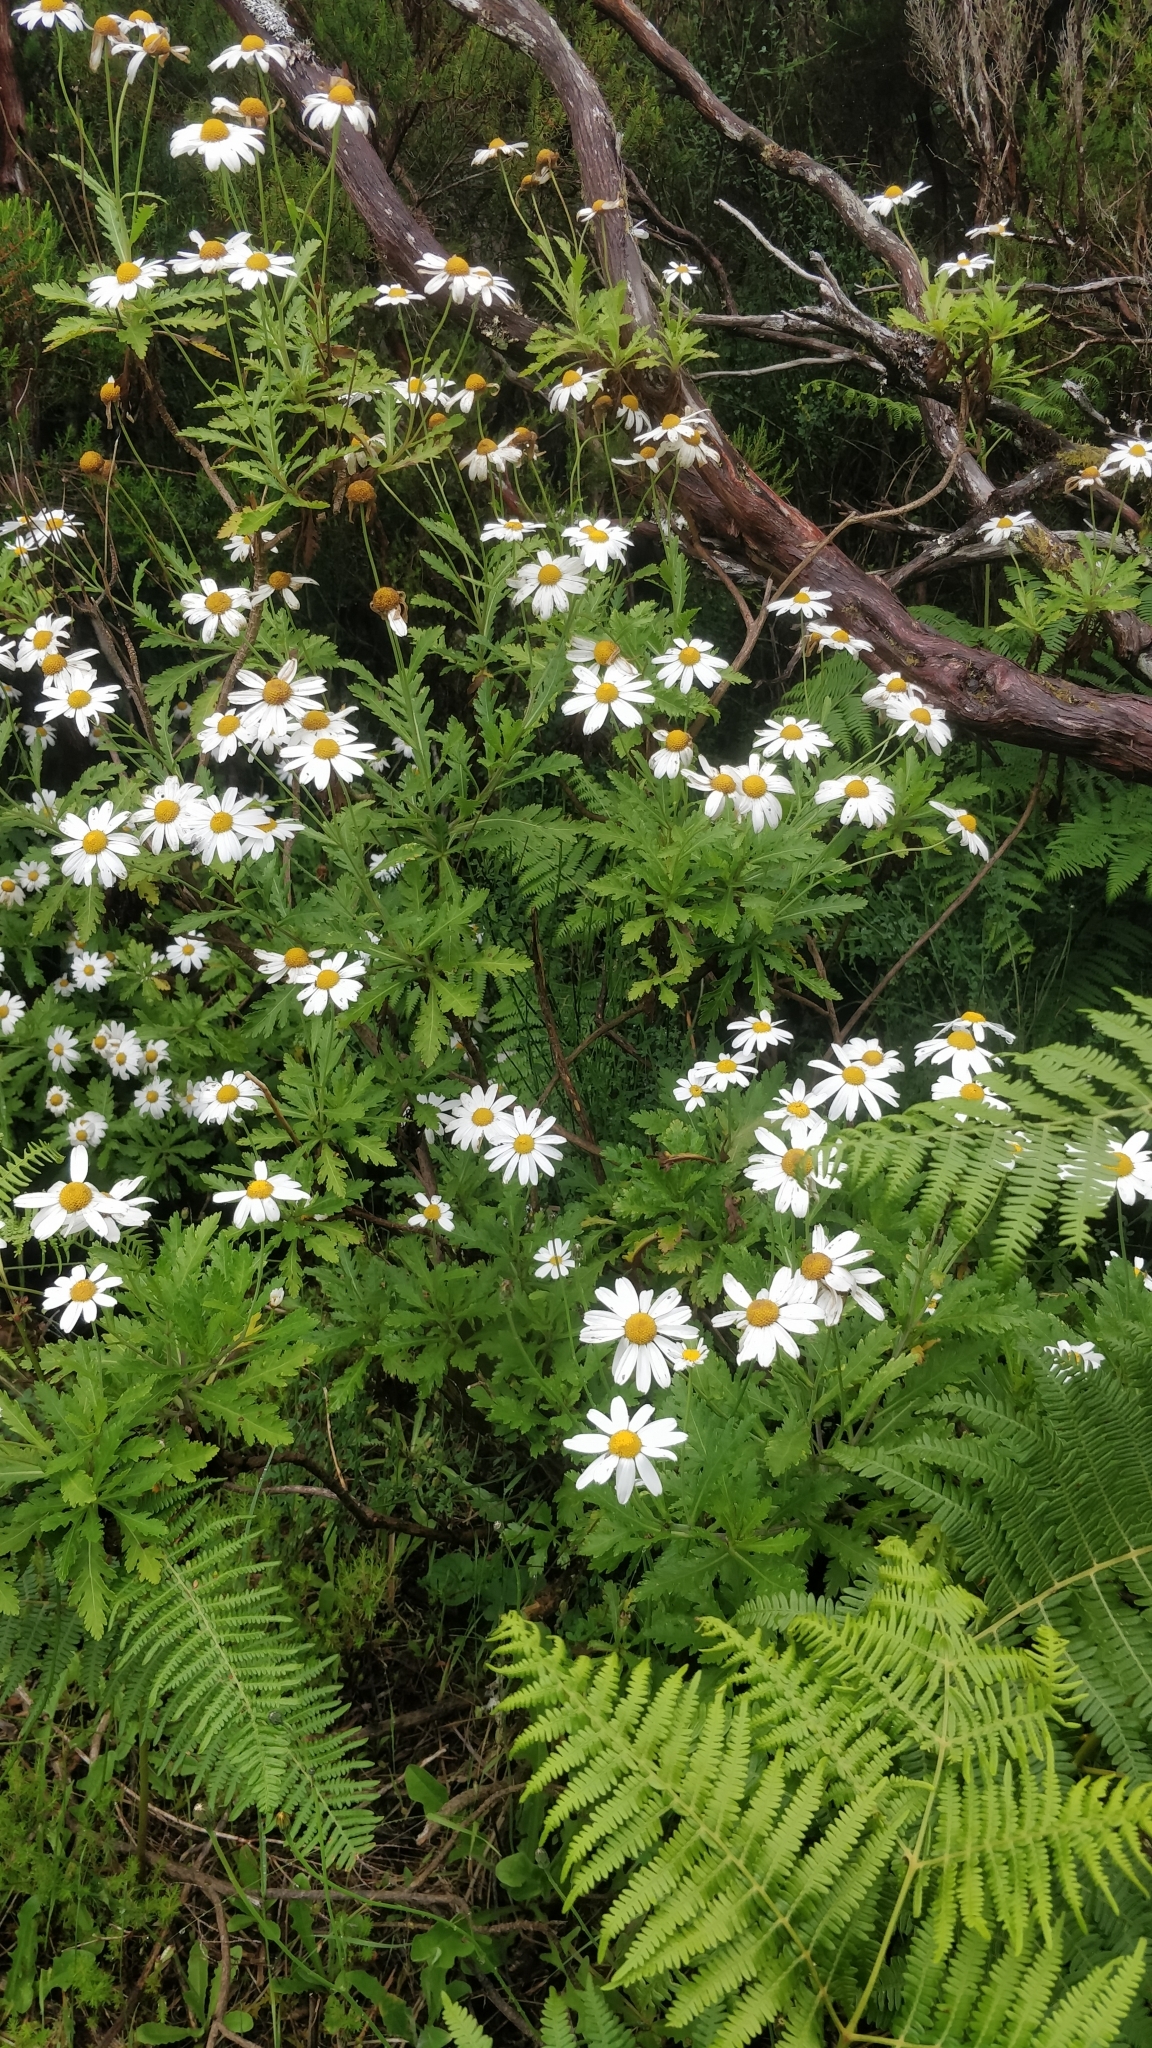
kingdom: Plantae
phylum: Tracheophyta
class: Magnoliopsida
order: Asterales
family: Asteraceae
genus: Argyranthemum
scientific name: Argyranthemum pinnatifidum
